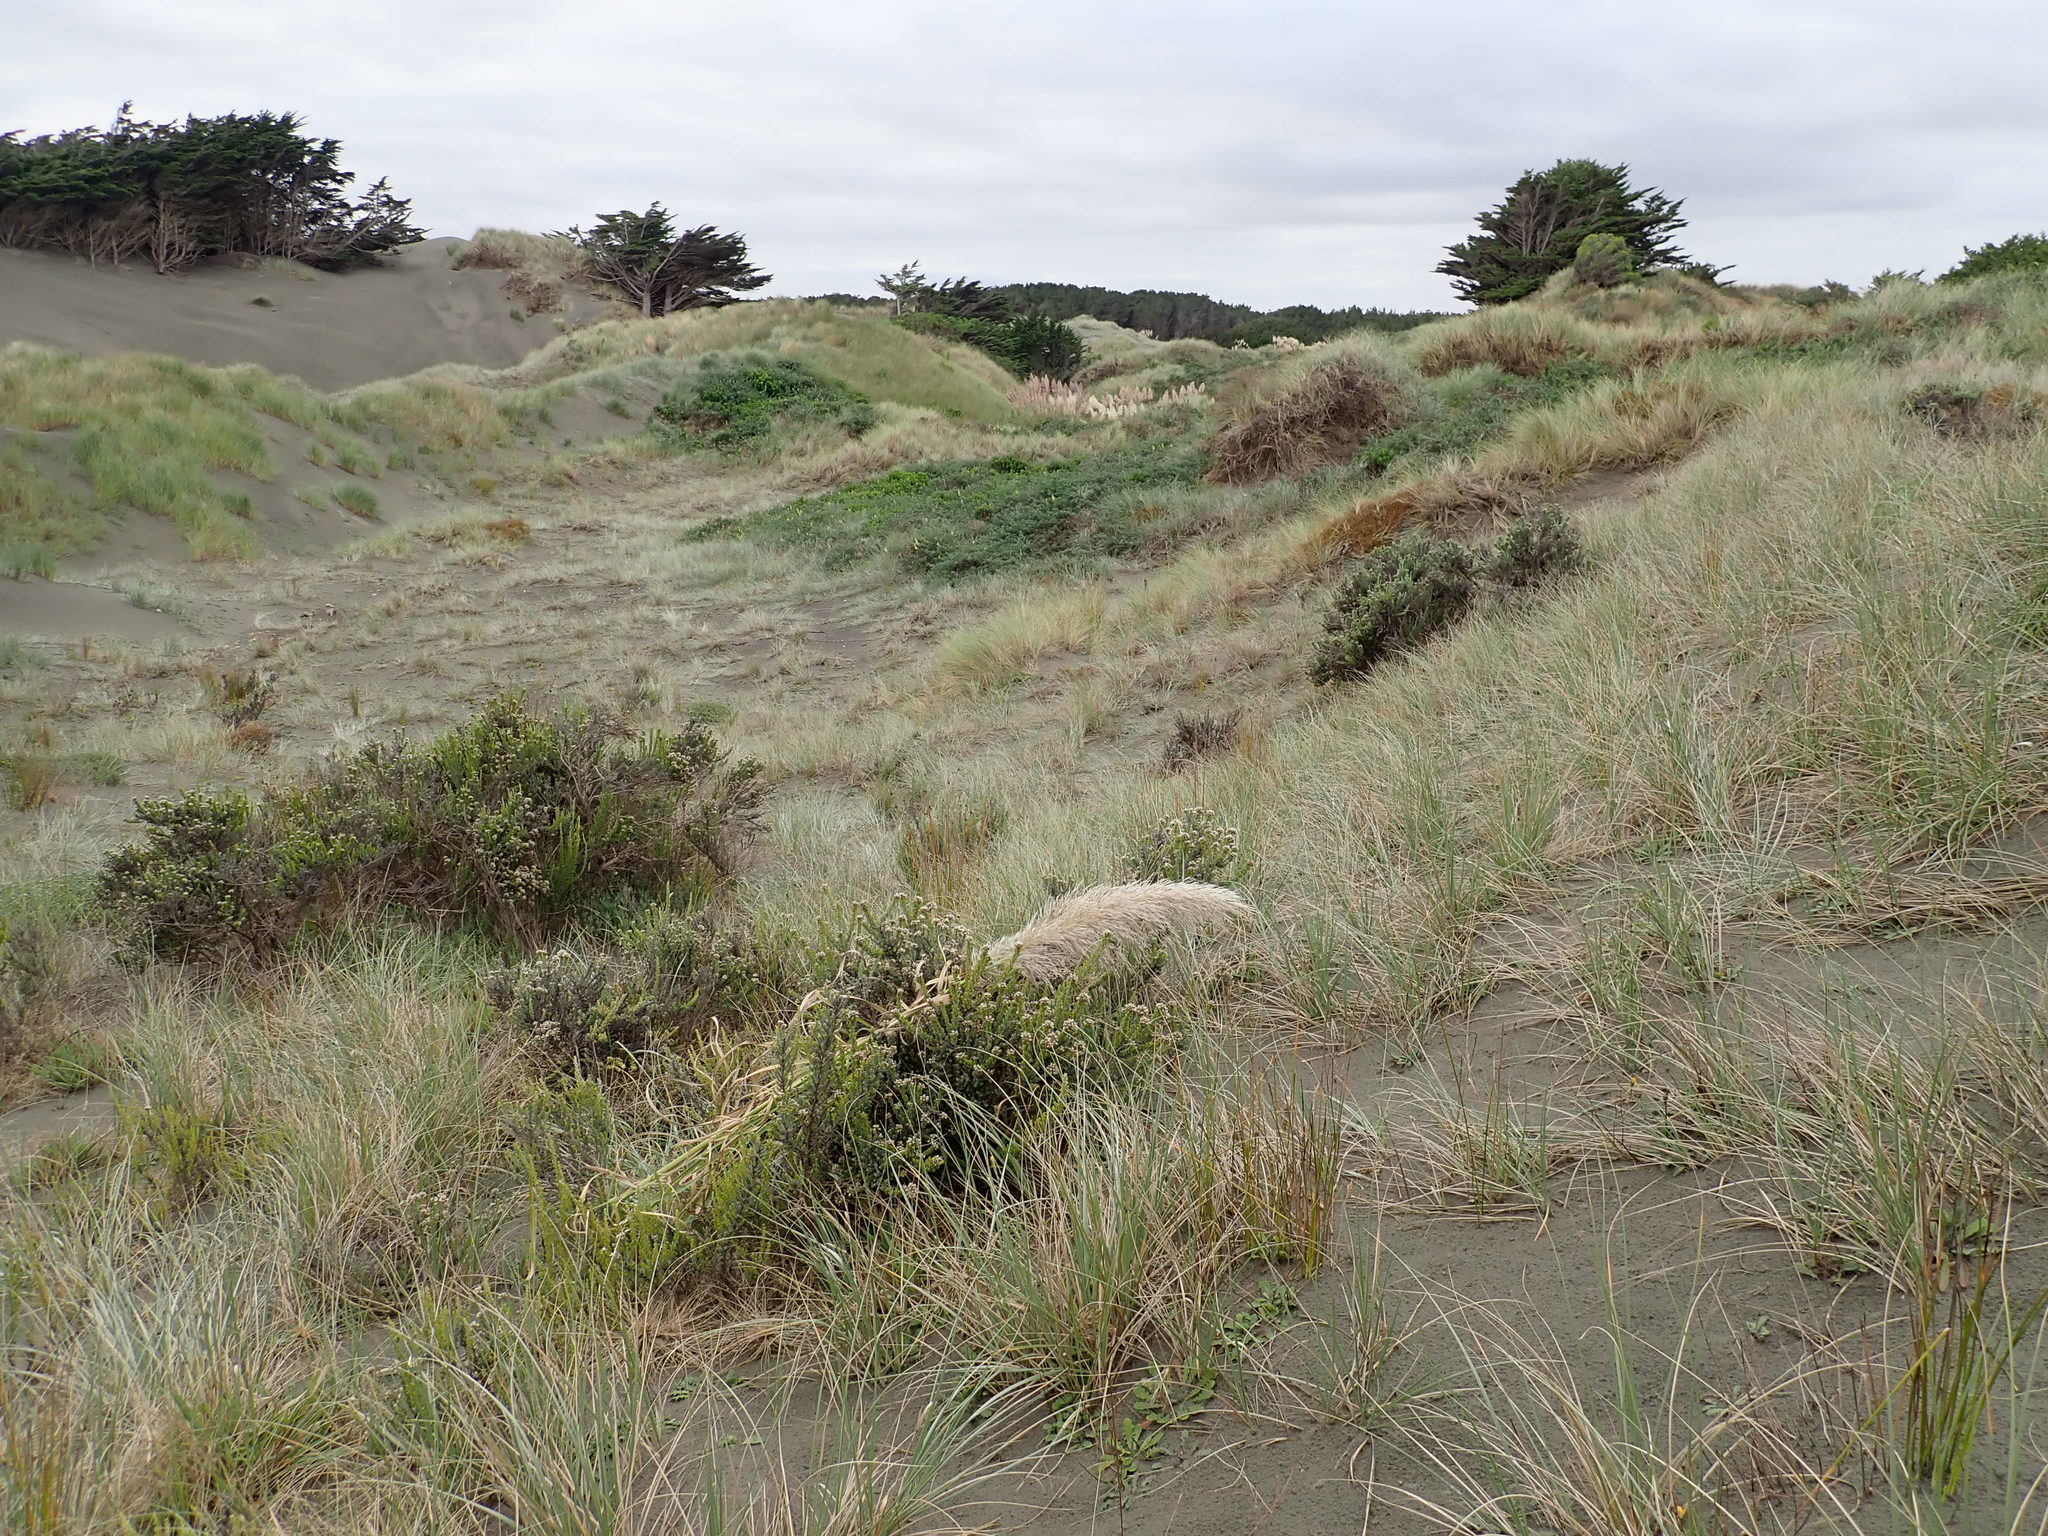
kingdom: Plantae
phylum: Tracheophyta
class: Liliopsida
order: Poales
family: Poaceae
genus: Cortaderia
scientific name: Cortaderia selloana
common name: Uruguayan pampas grass
